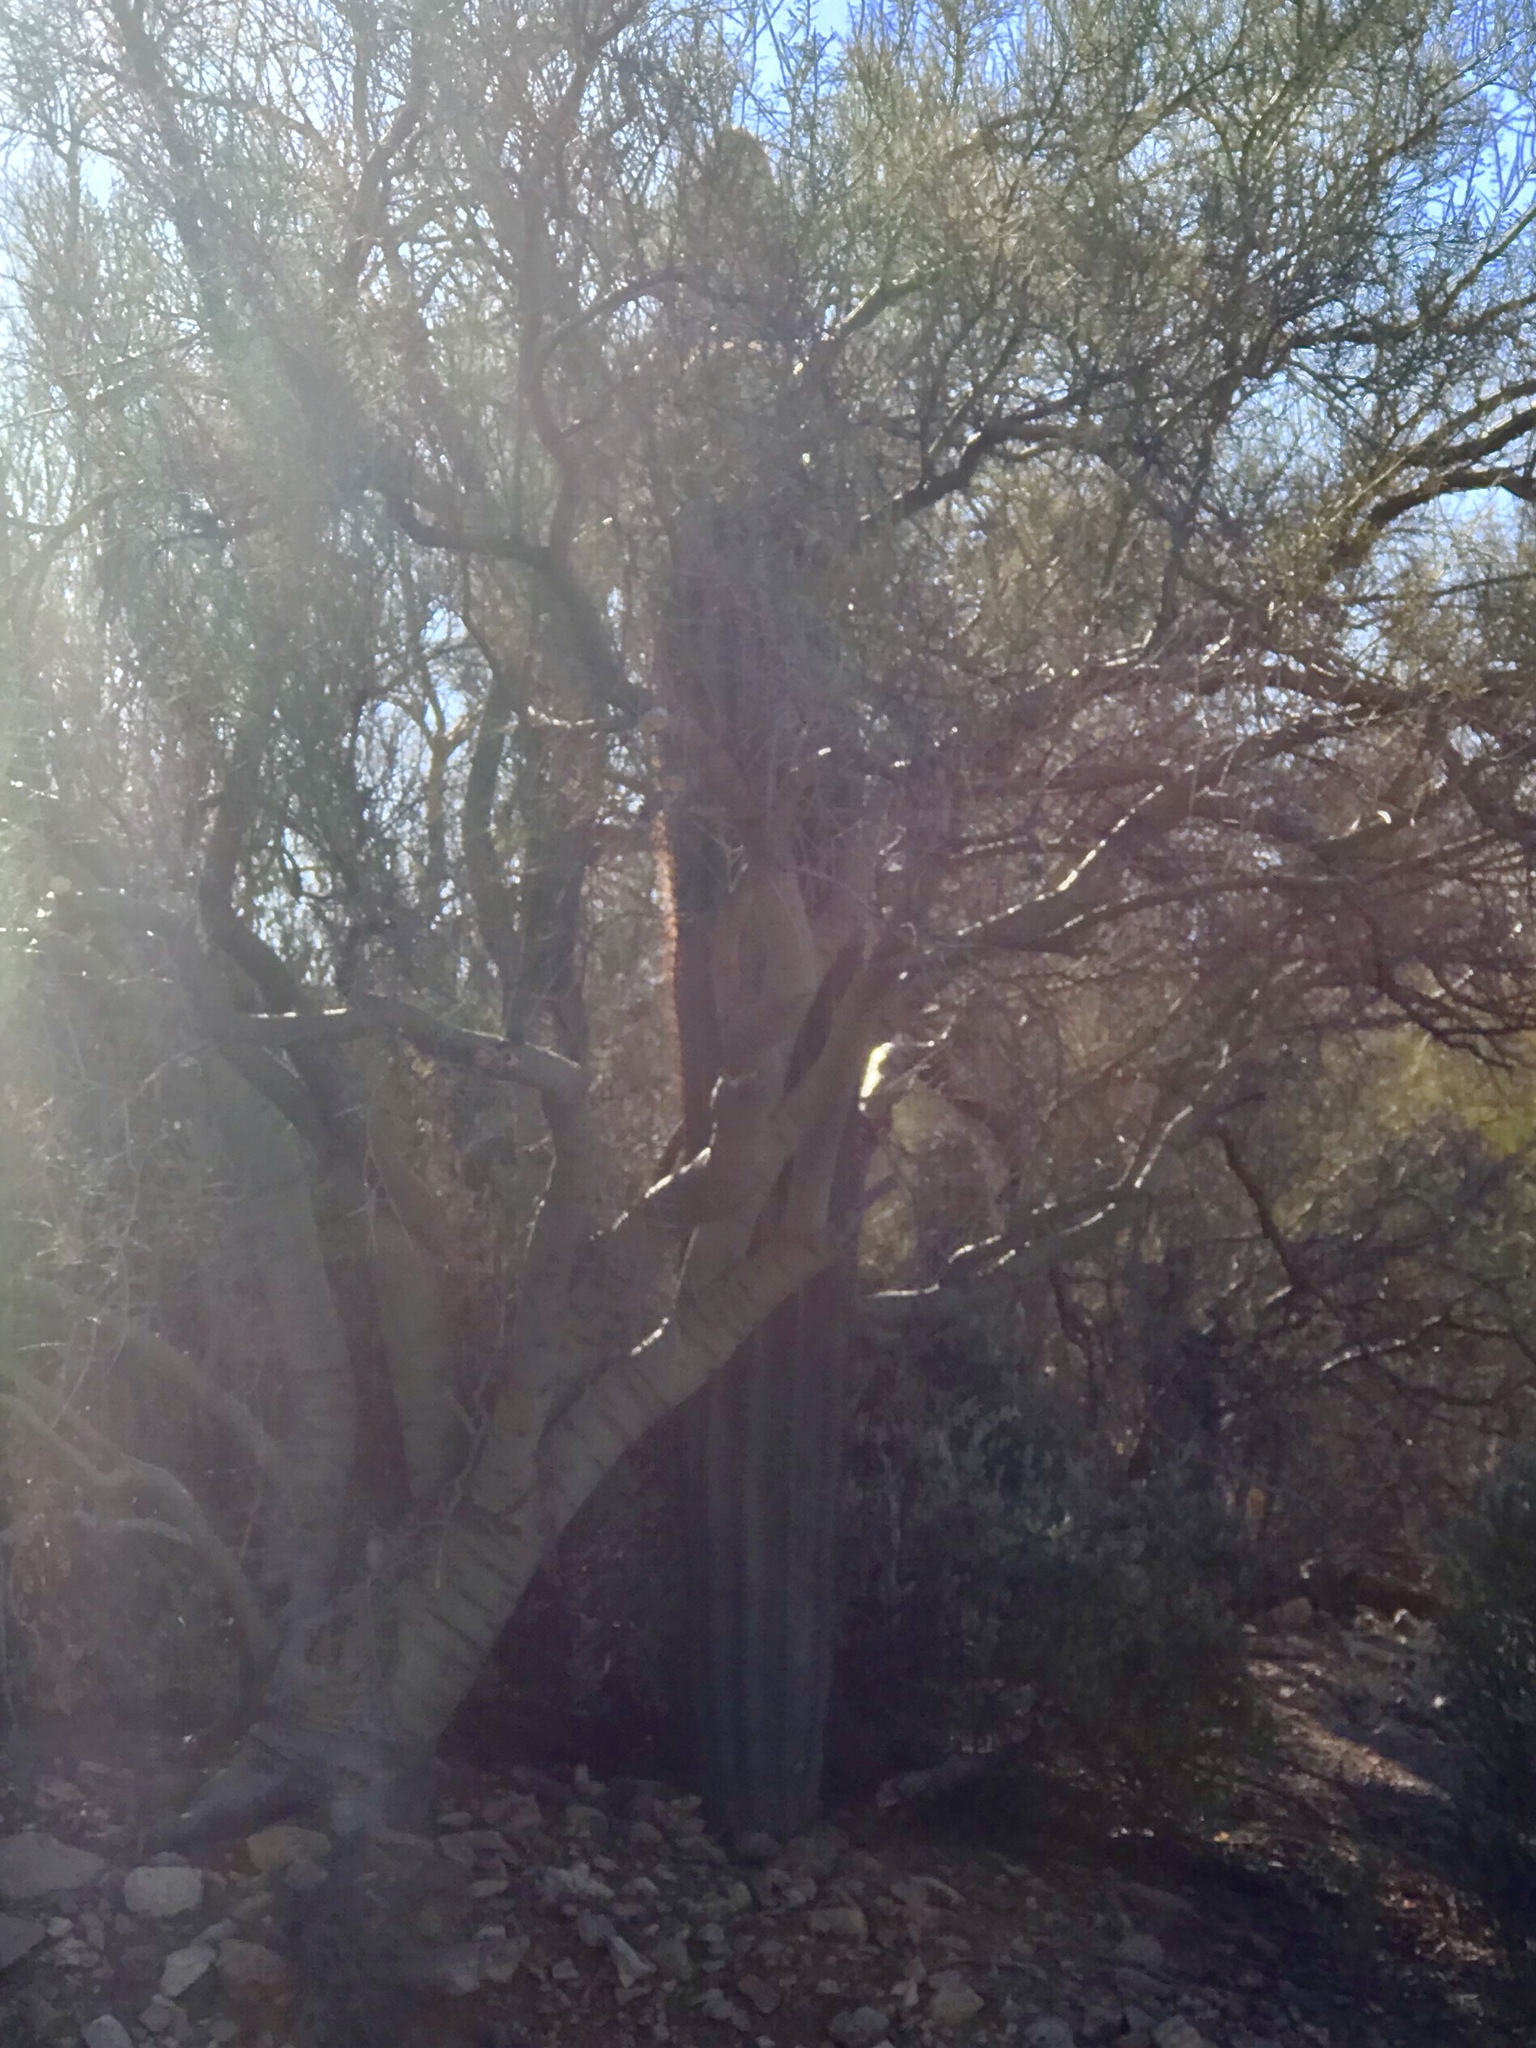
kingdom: Plantae
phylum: Tracheophyta
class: Magnoliopsida
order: Fabales
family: Fabaceae
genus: Parkinsonia
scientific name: Parkinsonia microphylla
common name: Yellow paloverde
